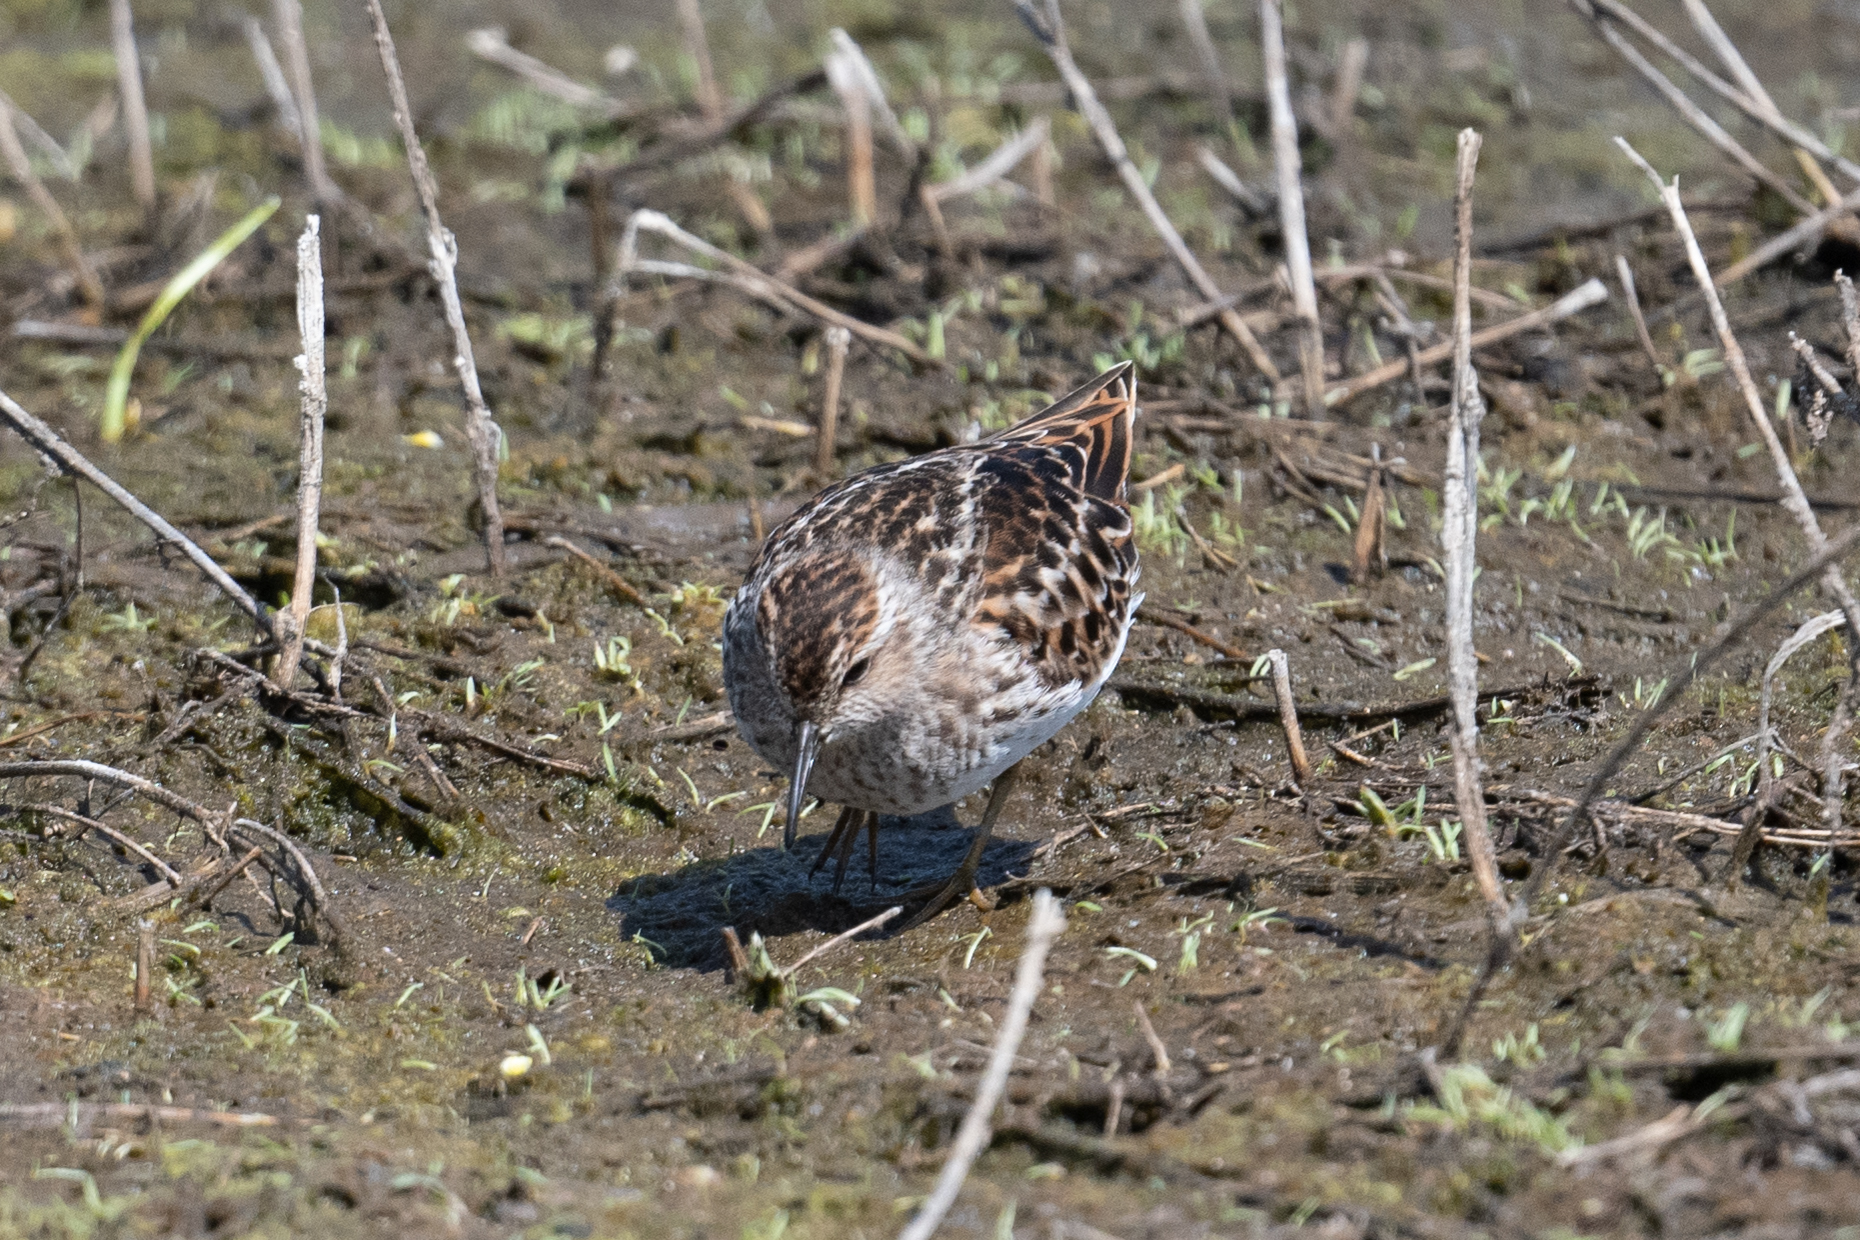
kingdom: Animalia
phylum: Chordata
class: Aves
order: Charadriiformes
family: Scolopacidae
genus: Calidris
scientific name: Calidris minutilla
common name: Least sandpiper
